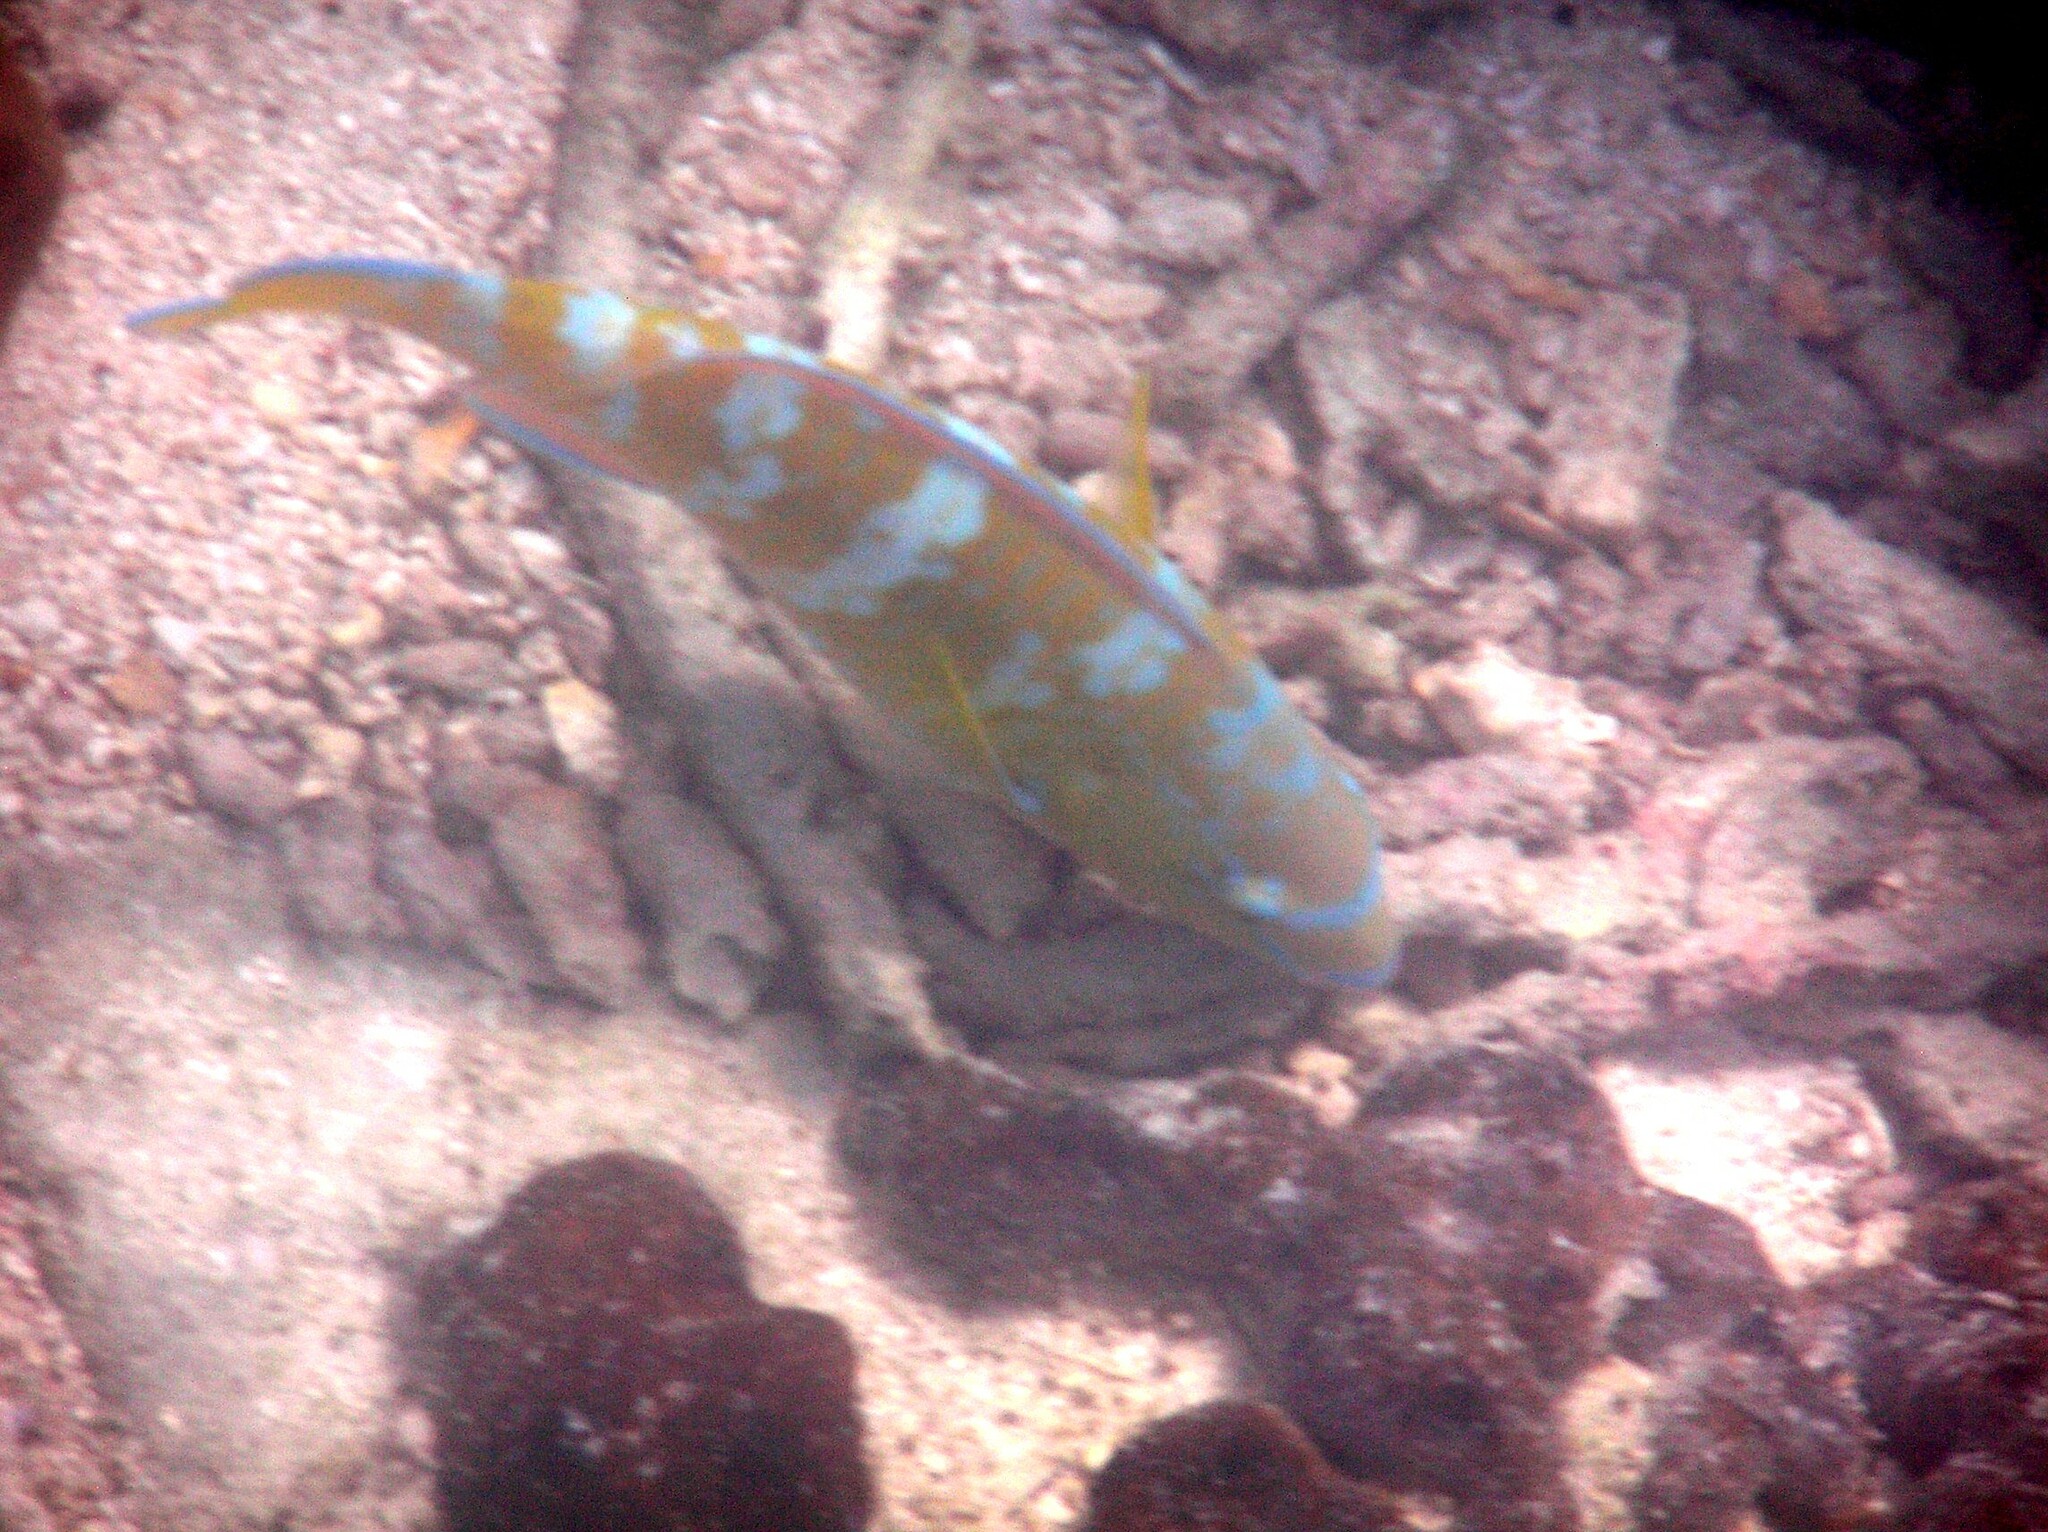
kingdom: Animalia
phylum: Chordata
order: Perciformes
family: Scaridae
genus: Scarus
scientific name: Scarus ghobban
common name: Blue-barred parrotfish
